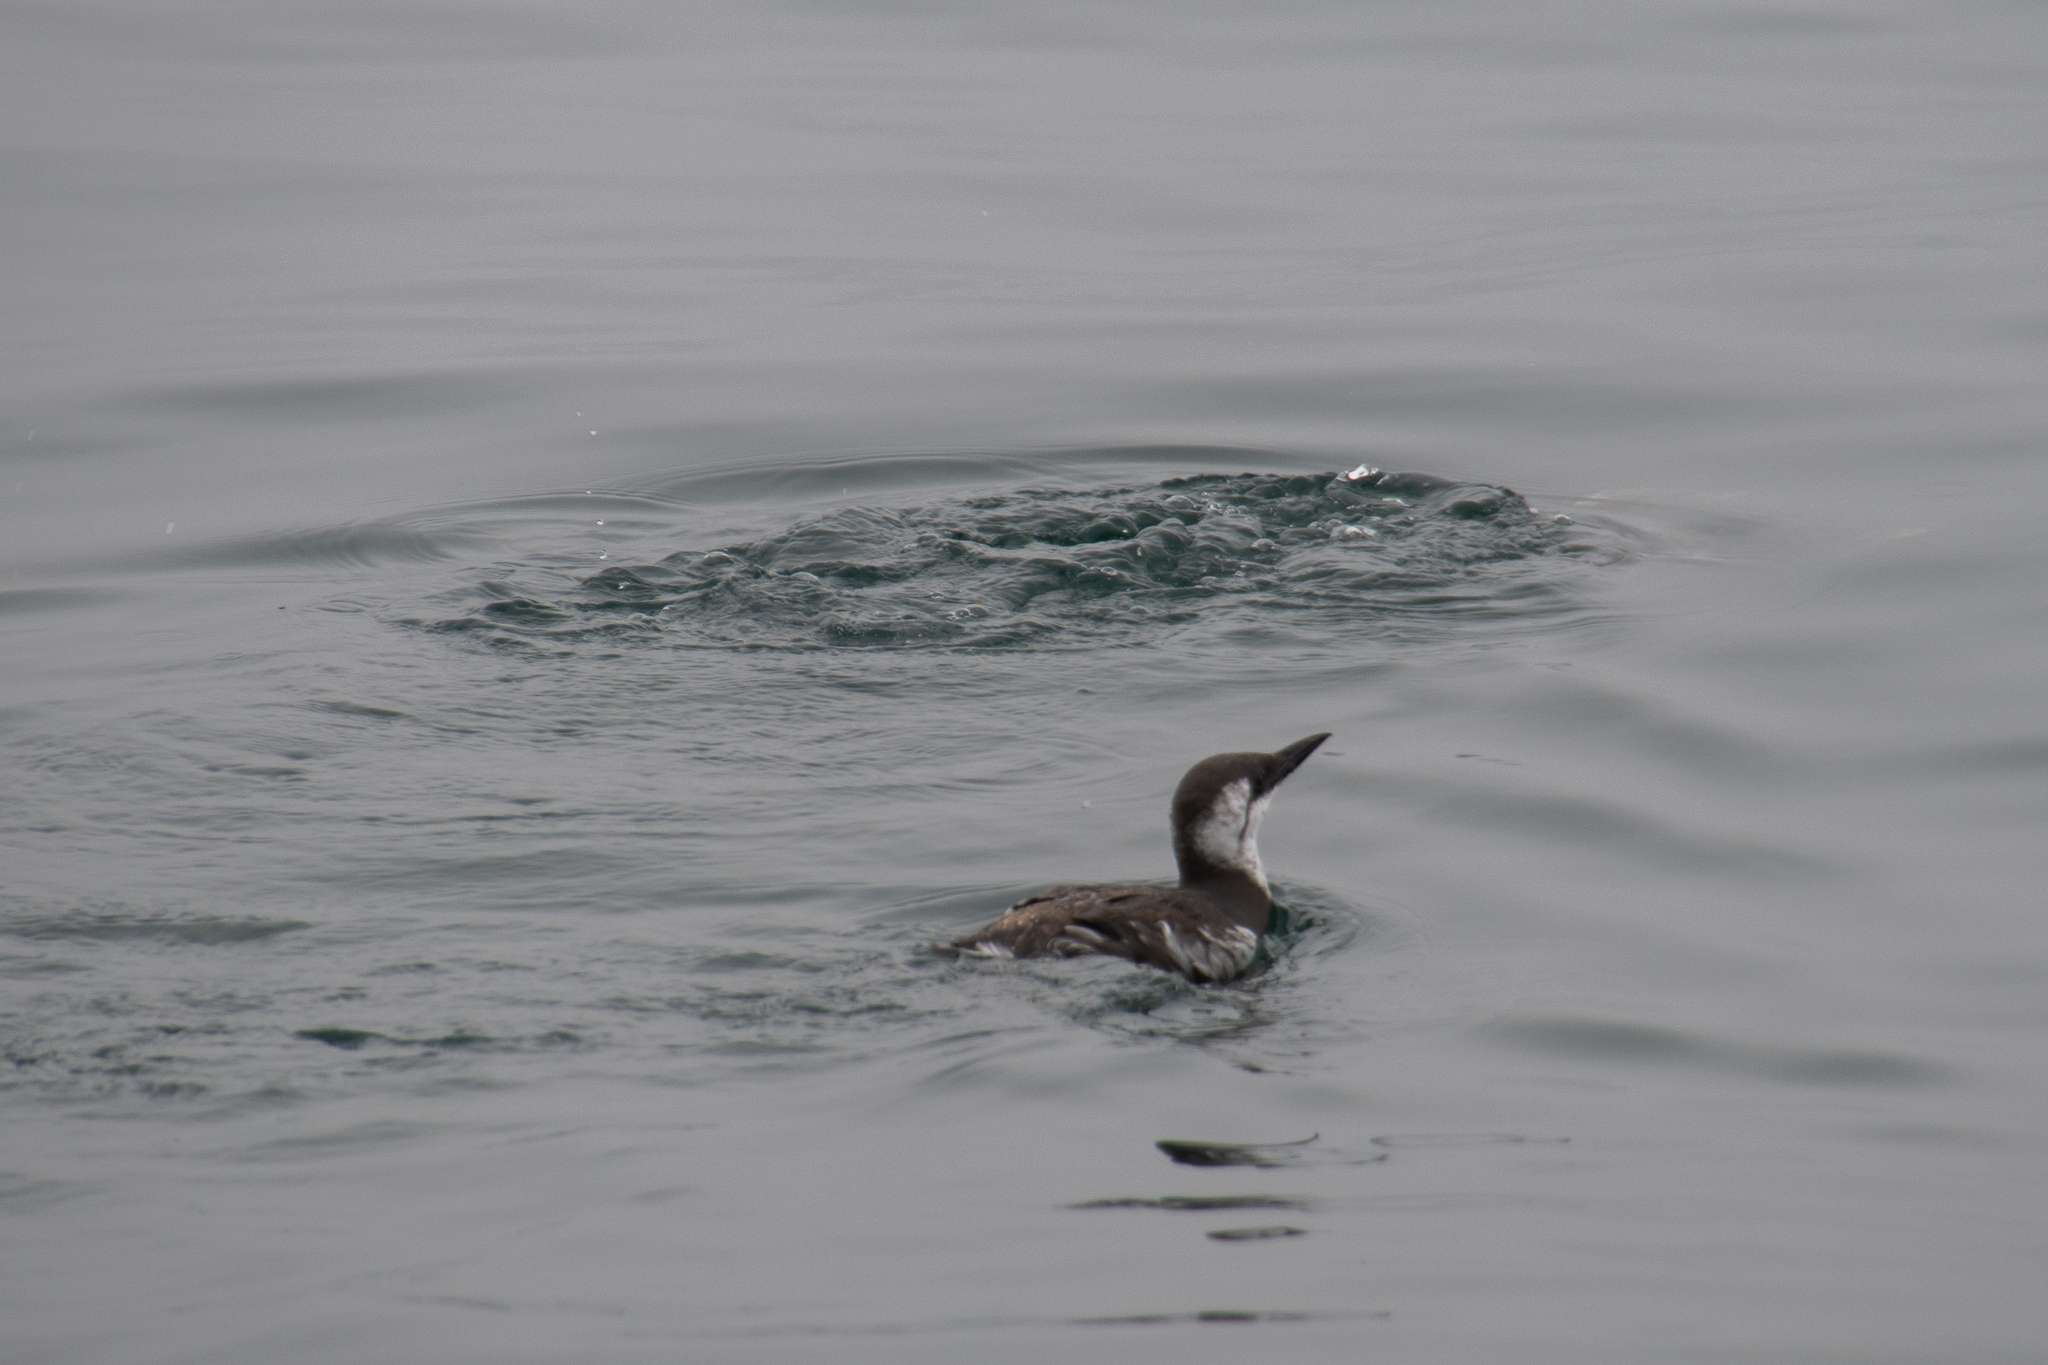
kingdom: Animalia
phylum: Chordata
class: Aves
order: Charadriiformes
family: Alcidae
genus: Uria
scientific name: Uria aalge
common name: Common murre
